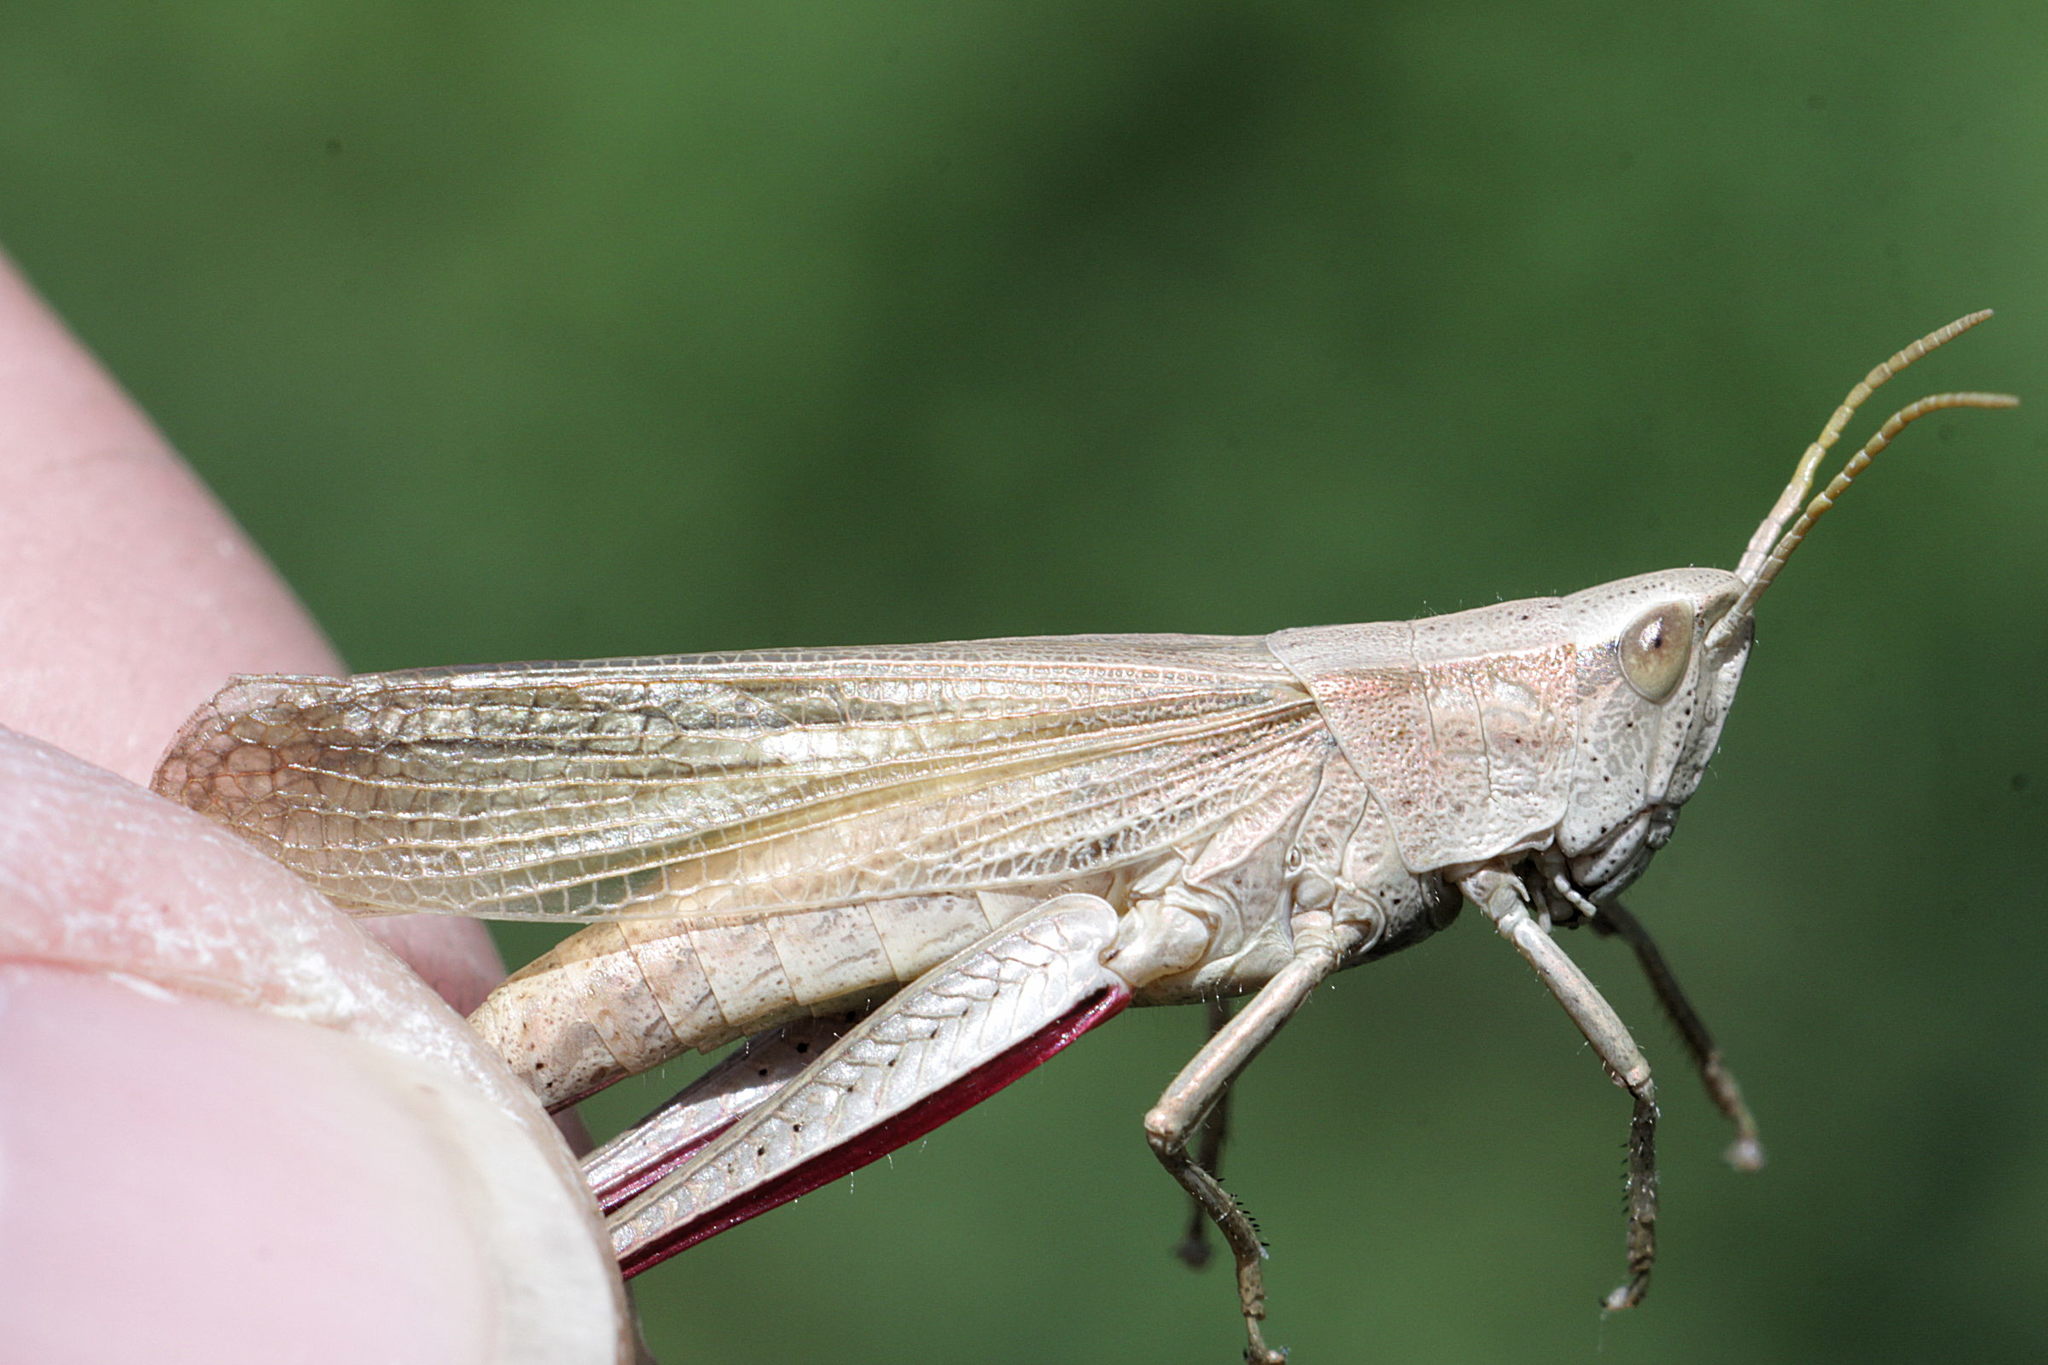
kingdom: Animalia
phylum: Arthropoda
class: Insecta
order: Orthoptera
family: Acrididae
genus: Chrysochraon
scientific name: Chrysochraon dispar
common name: Large gold grasshopper
